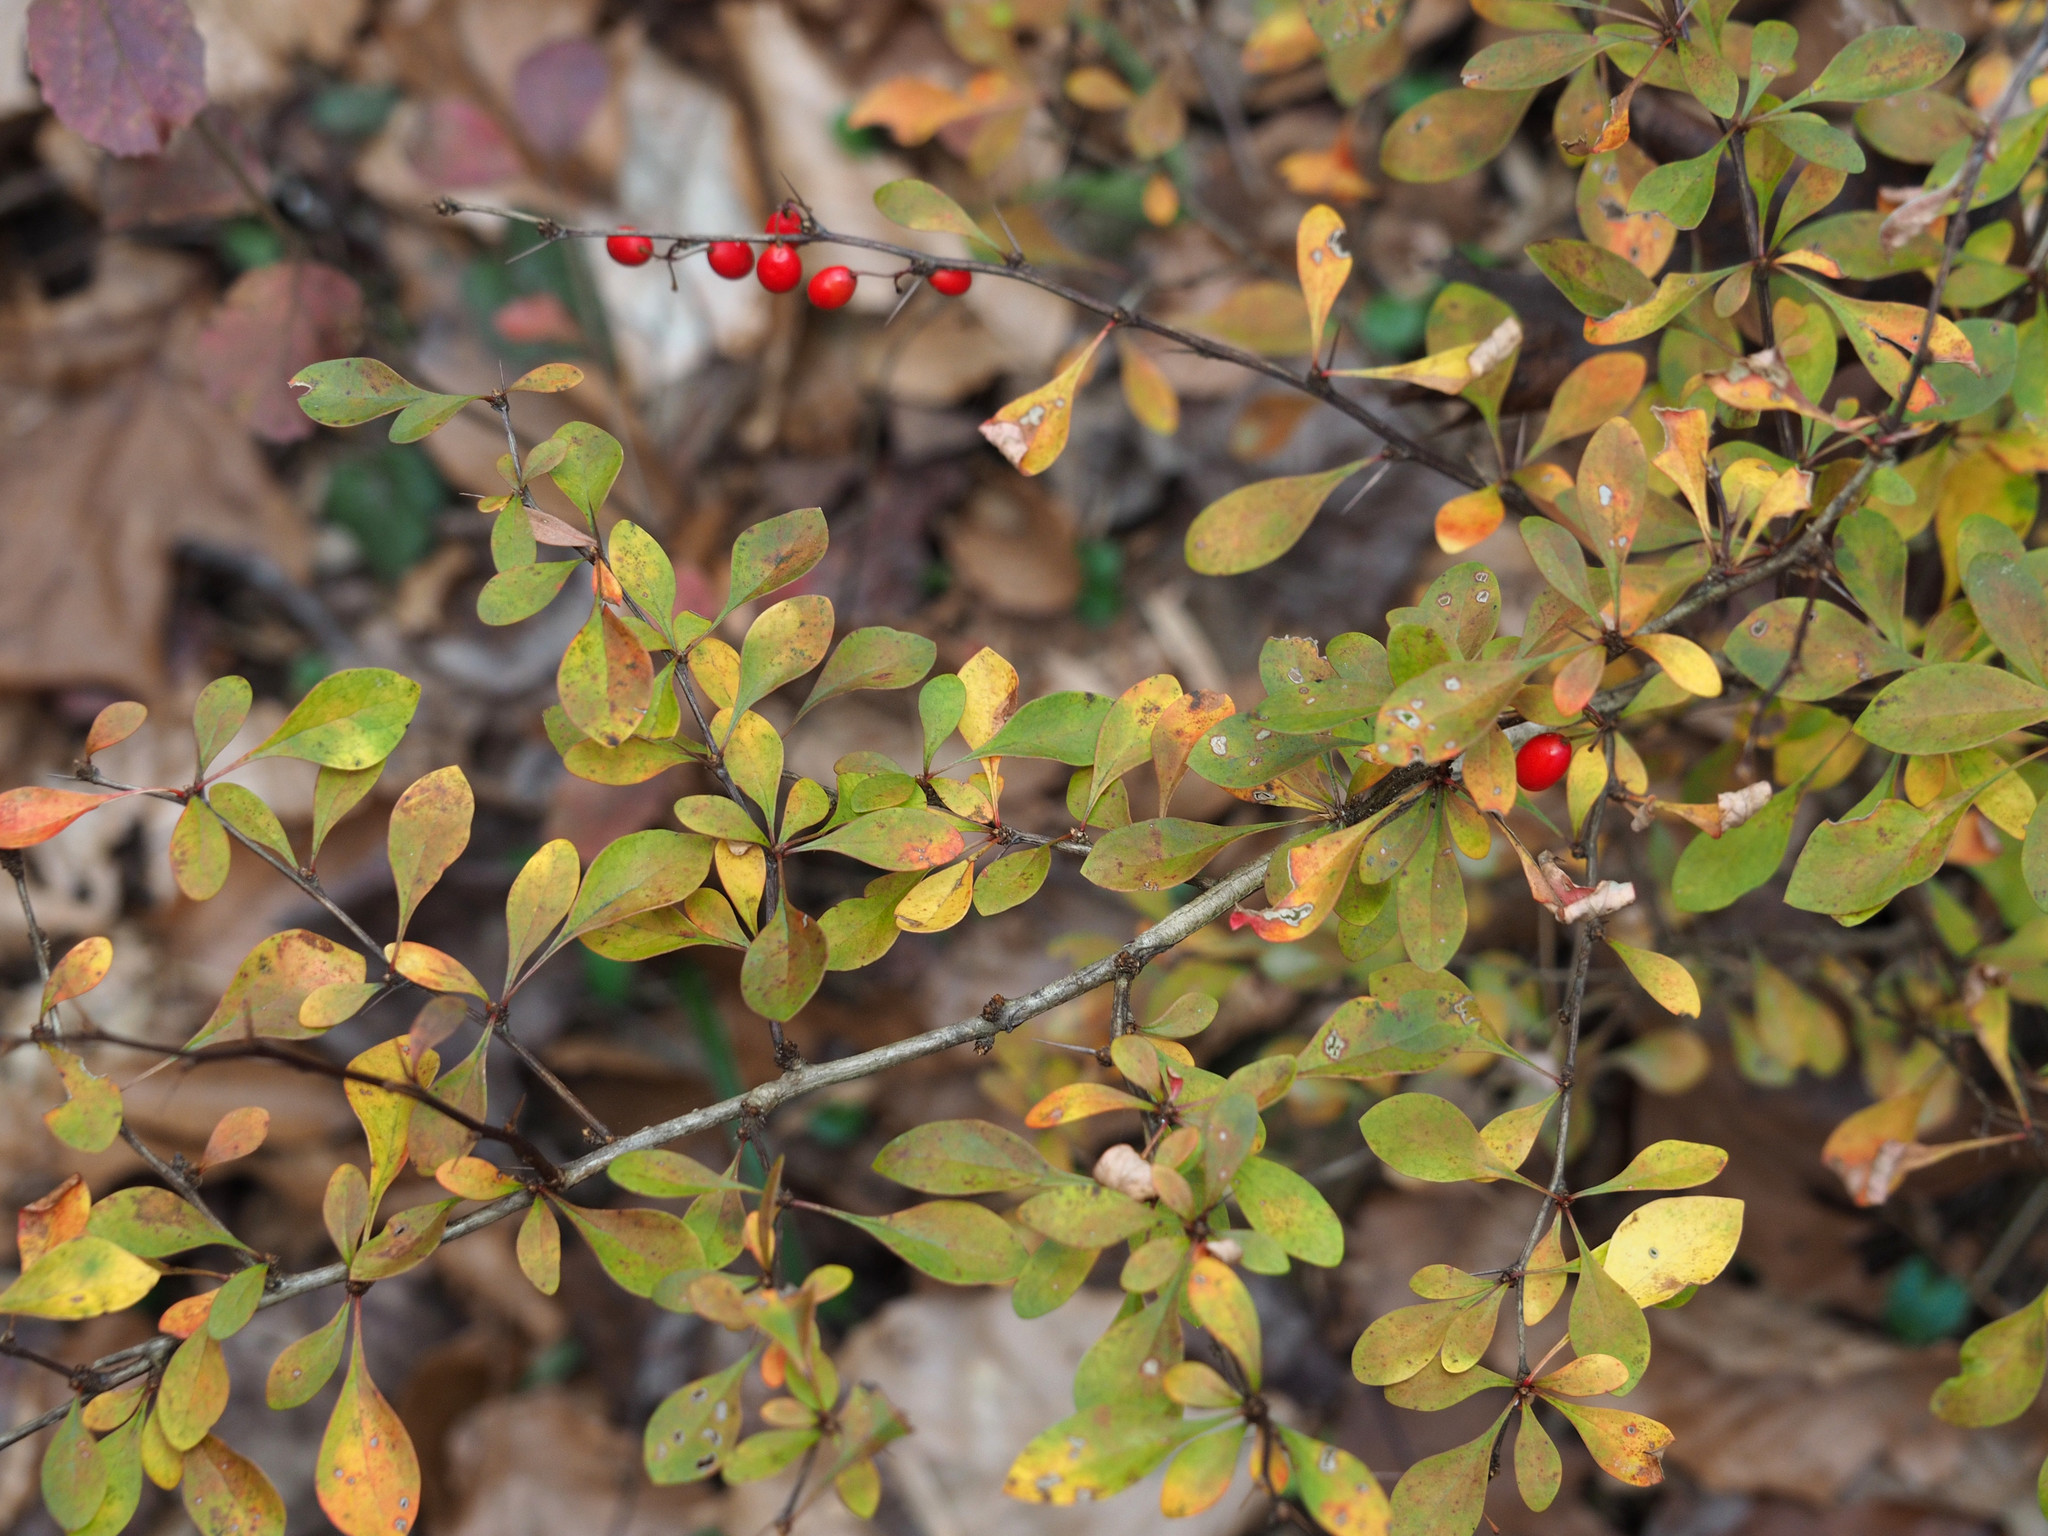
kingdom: Plantae
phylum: Tracheophyta
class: Magnoliopsida
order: Ranunculales
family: Berberidaceae
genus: Berberis
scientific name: Berberis thunbergii
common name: Japanese barberry
